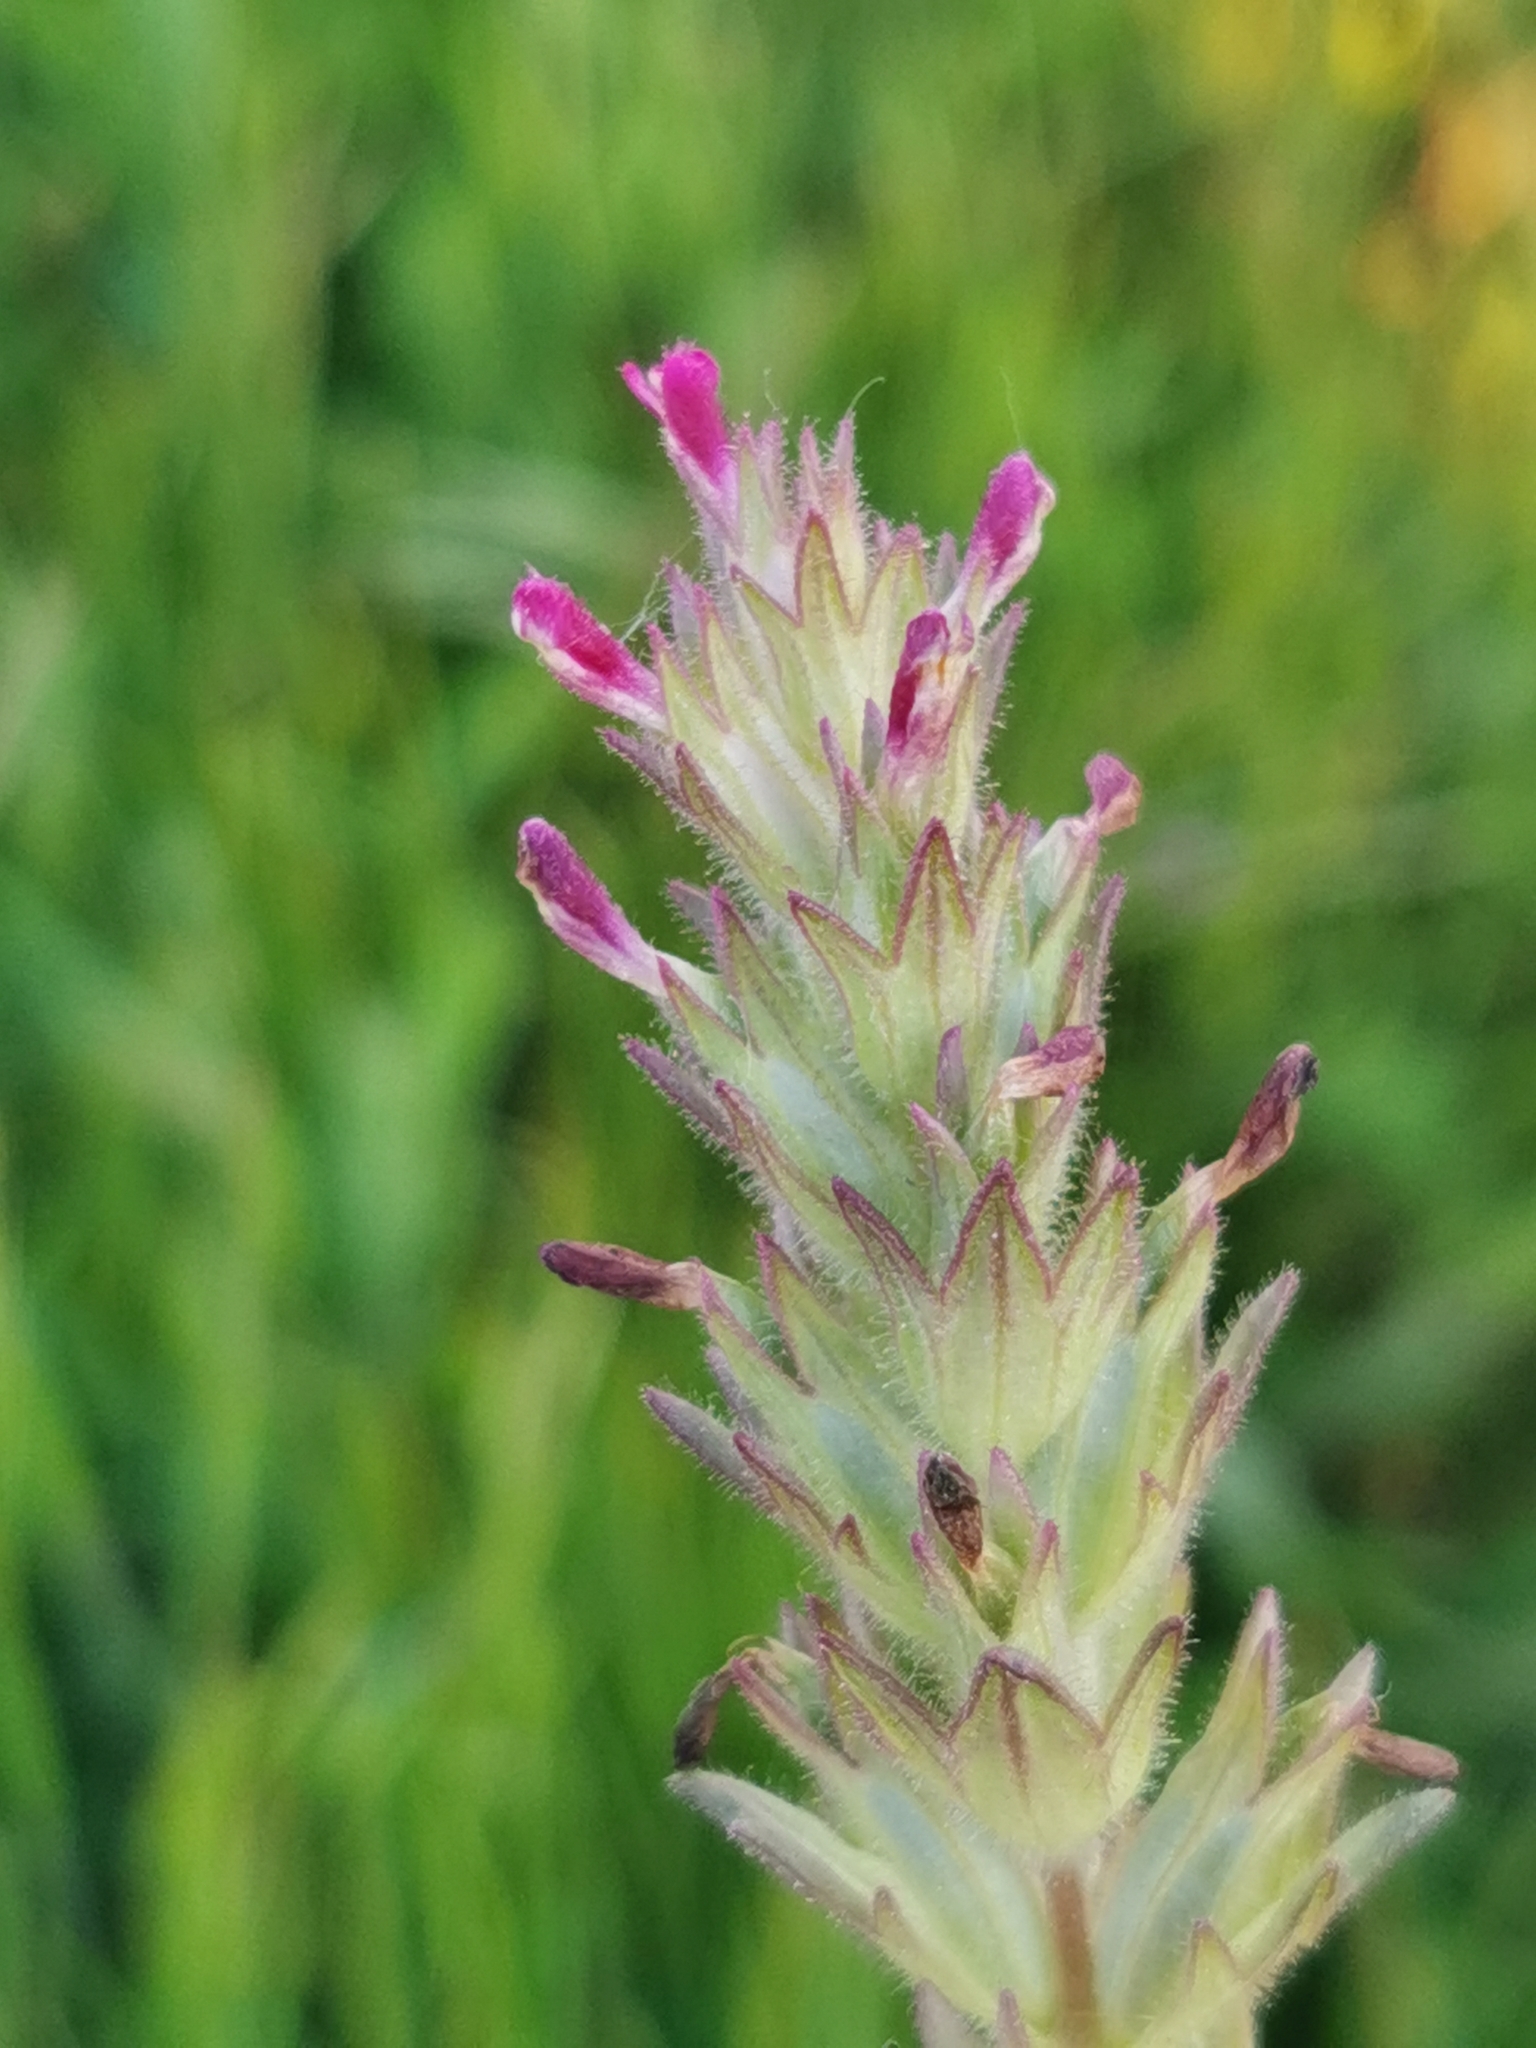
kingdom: Plantae
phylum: Tracheophyta
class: Magnoliopsida
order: Lamiales
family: Orobanchaceae
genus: Parentucellia
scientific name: Parentucellia latifolia
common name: Broadleaf glandweed
